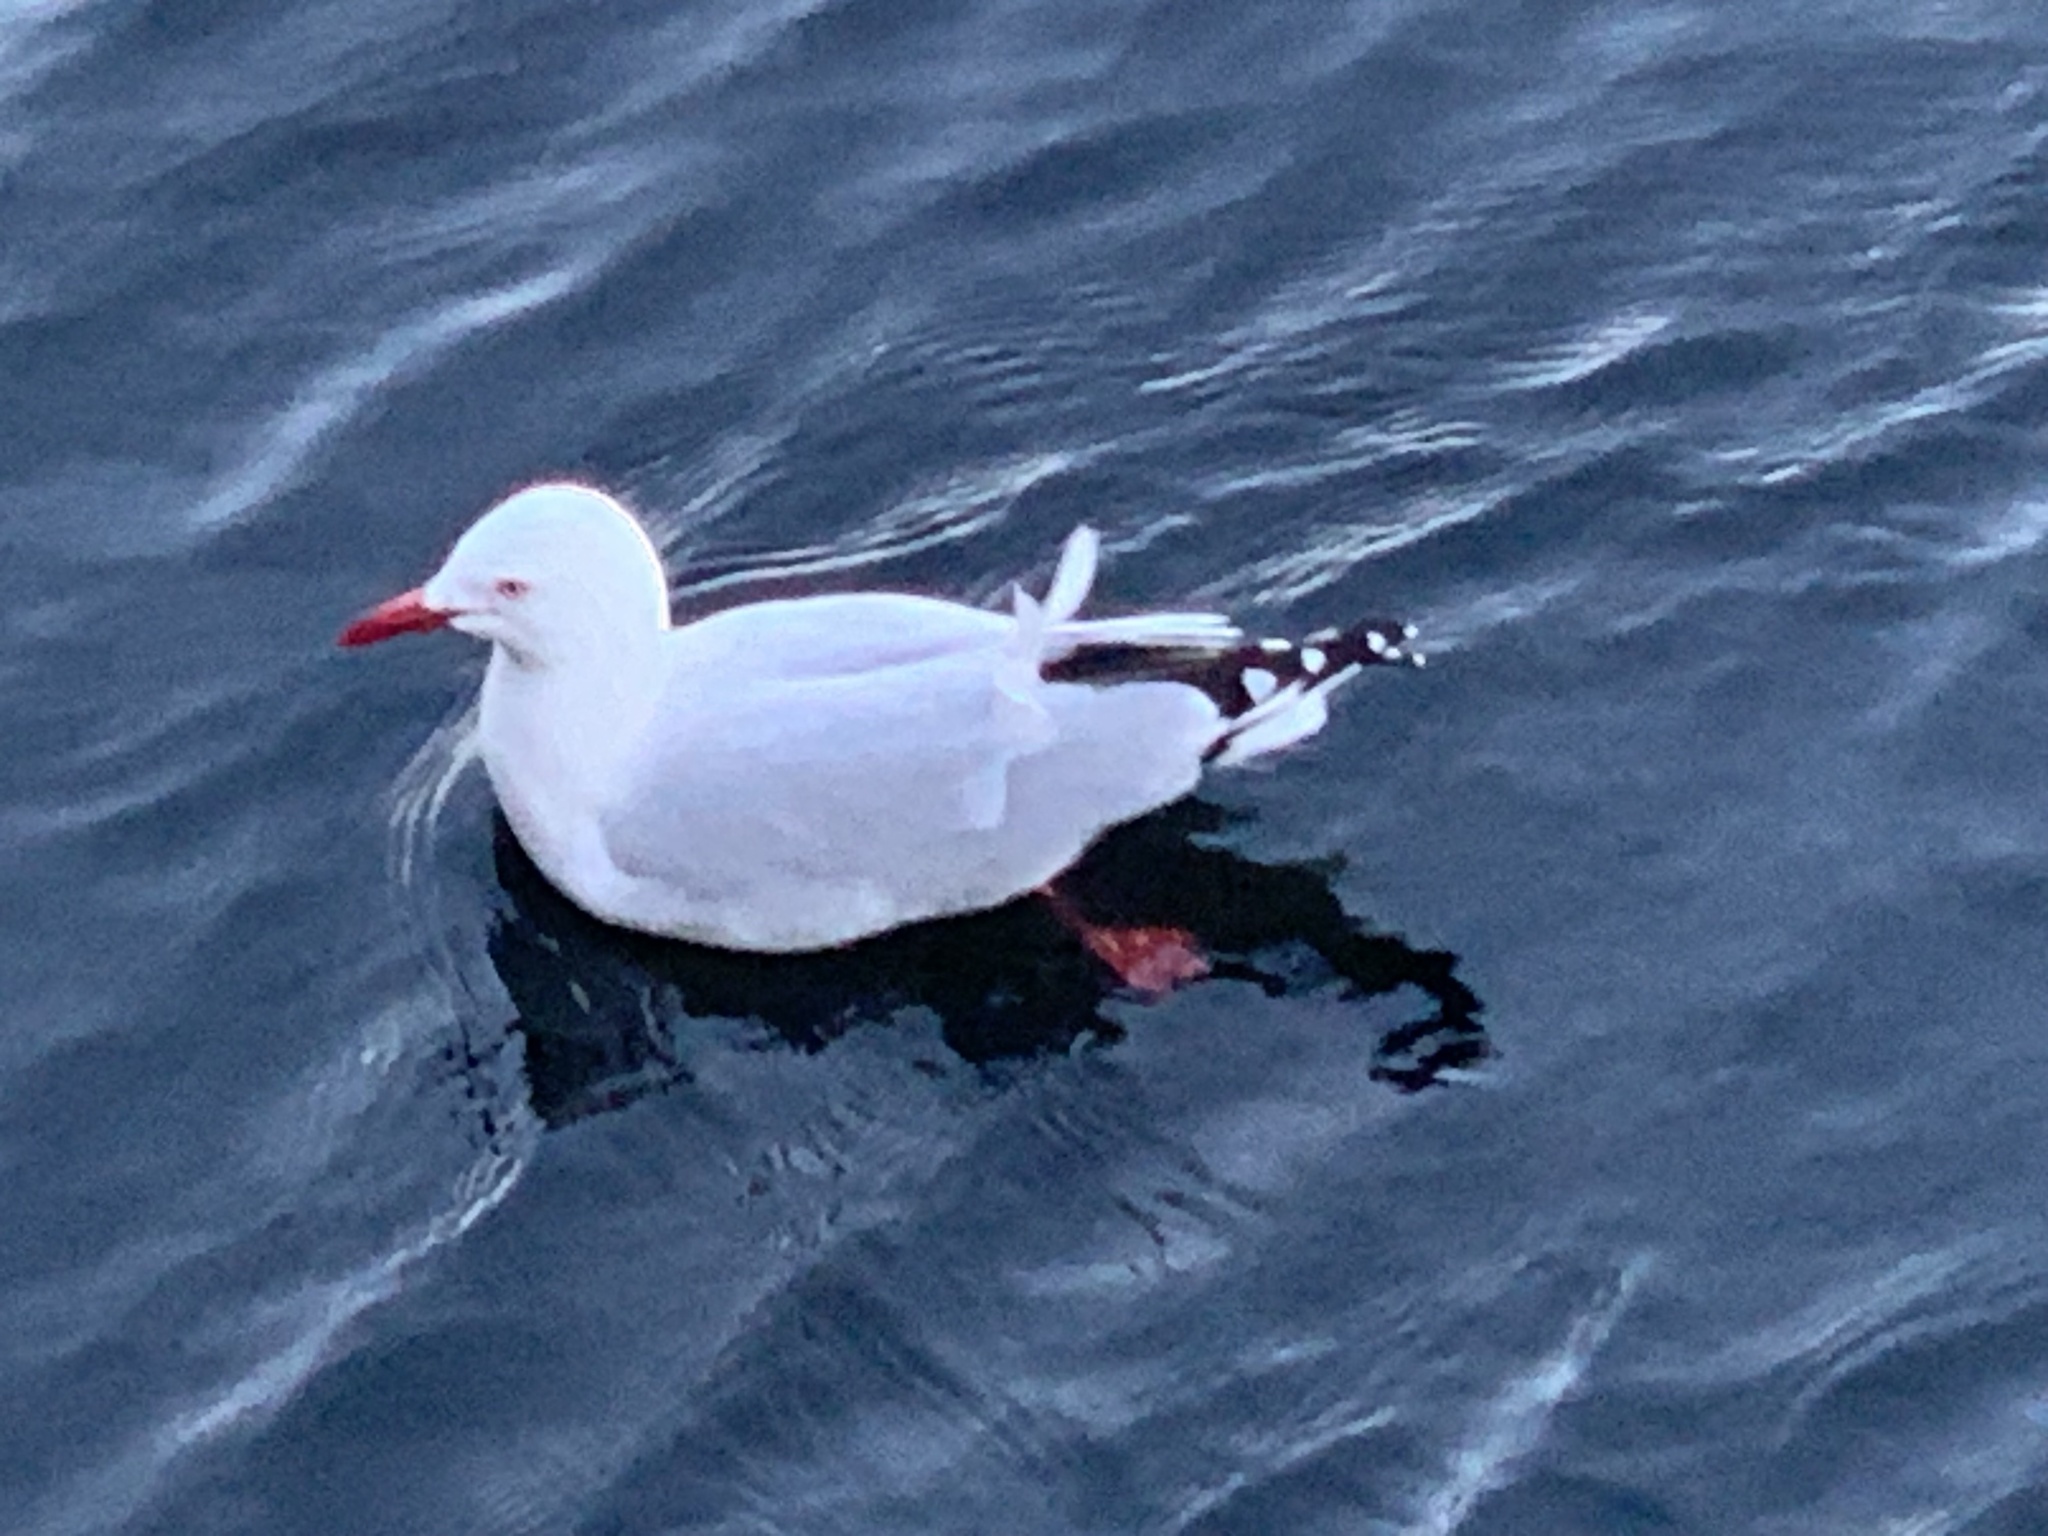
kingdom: Animalia
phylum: Chordata
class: Aves
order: Charadriiformes
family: Laridae
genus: Chroicocephalus
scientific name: Chroicocephalus novaehollandiae
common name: Silver gull
